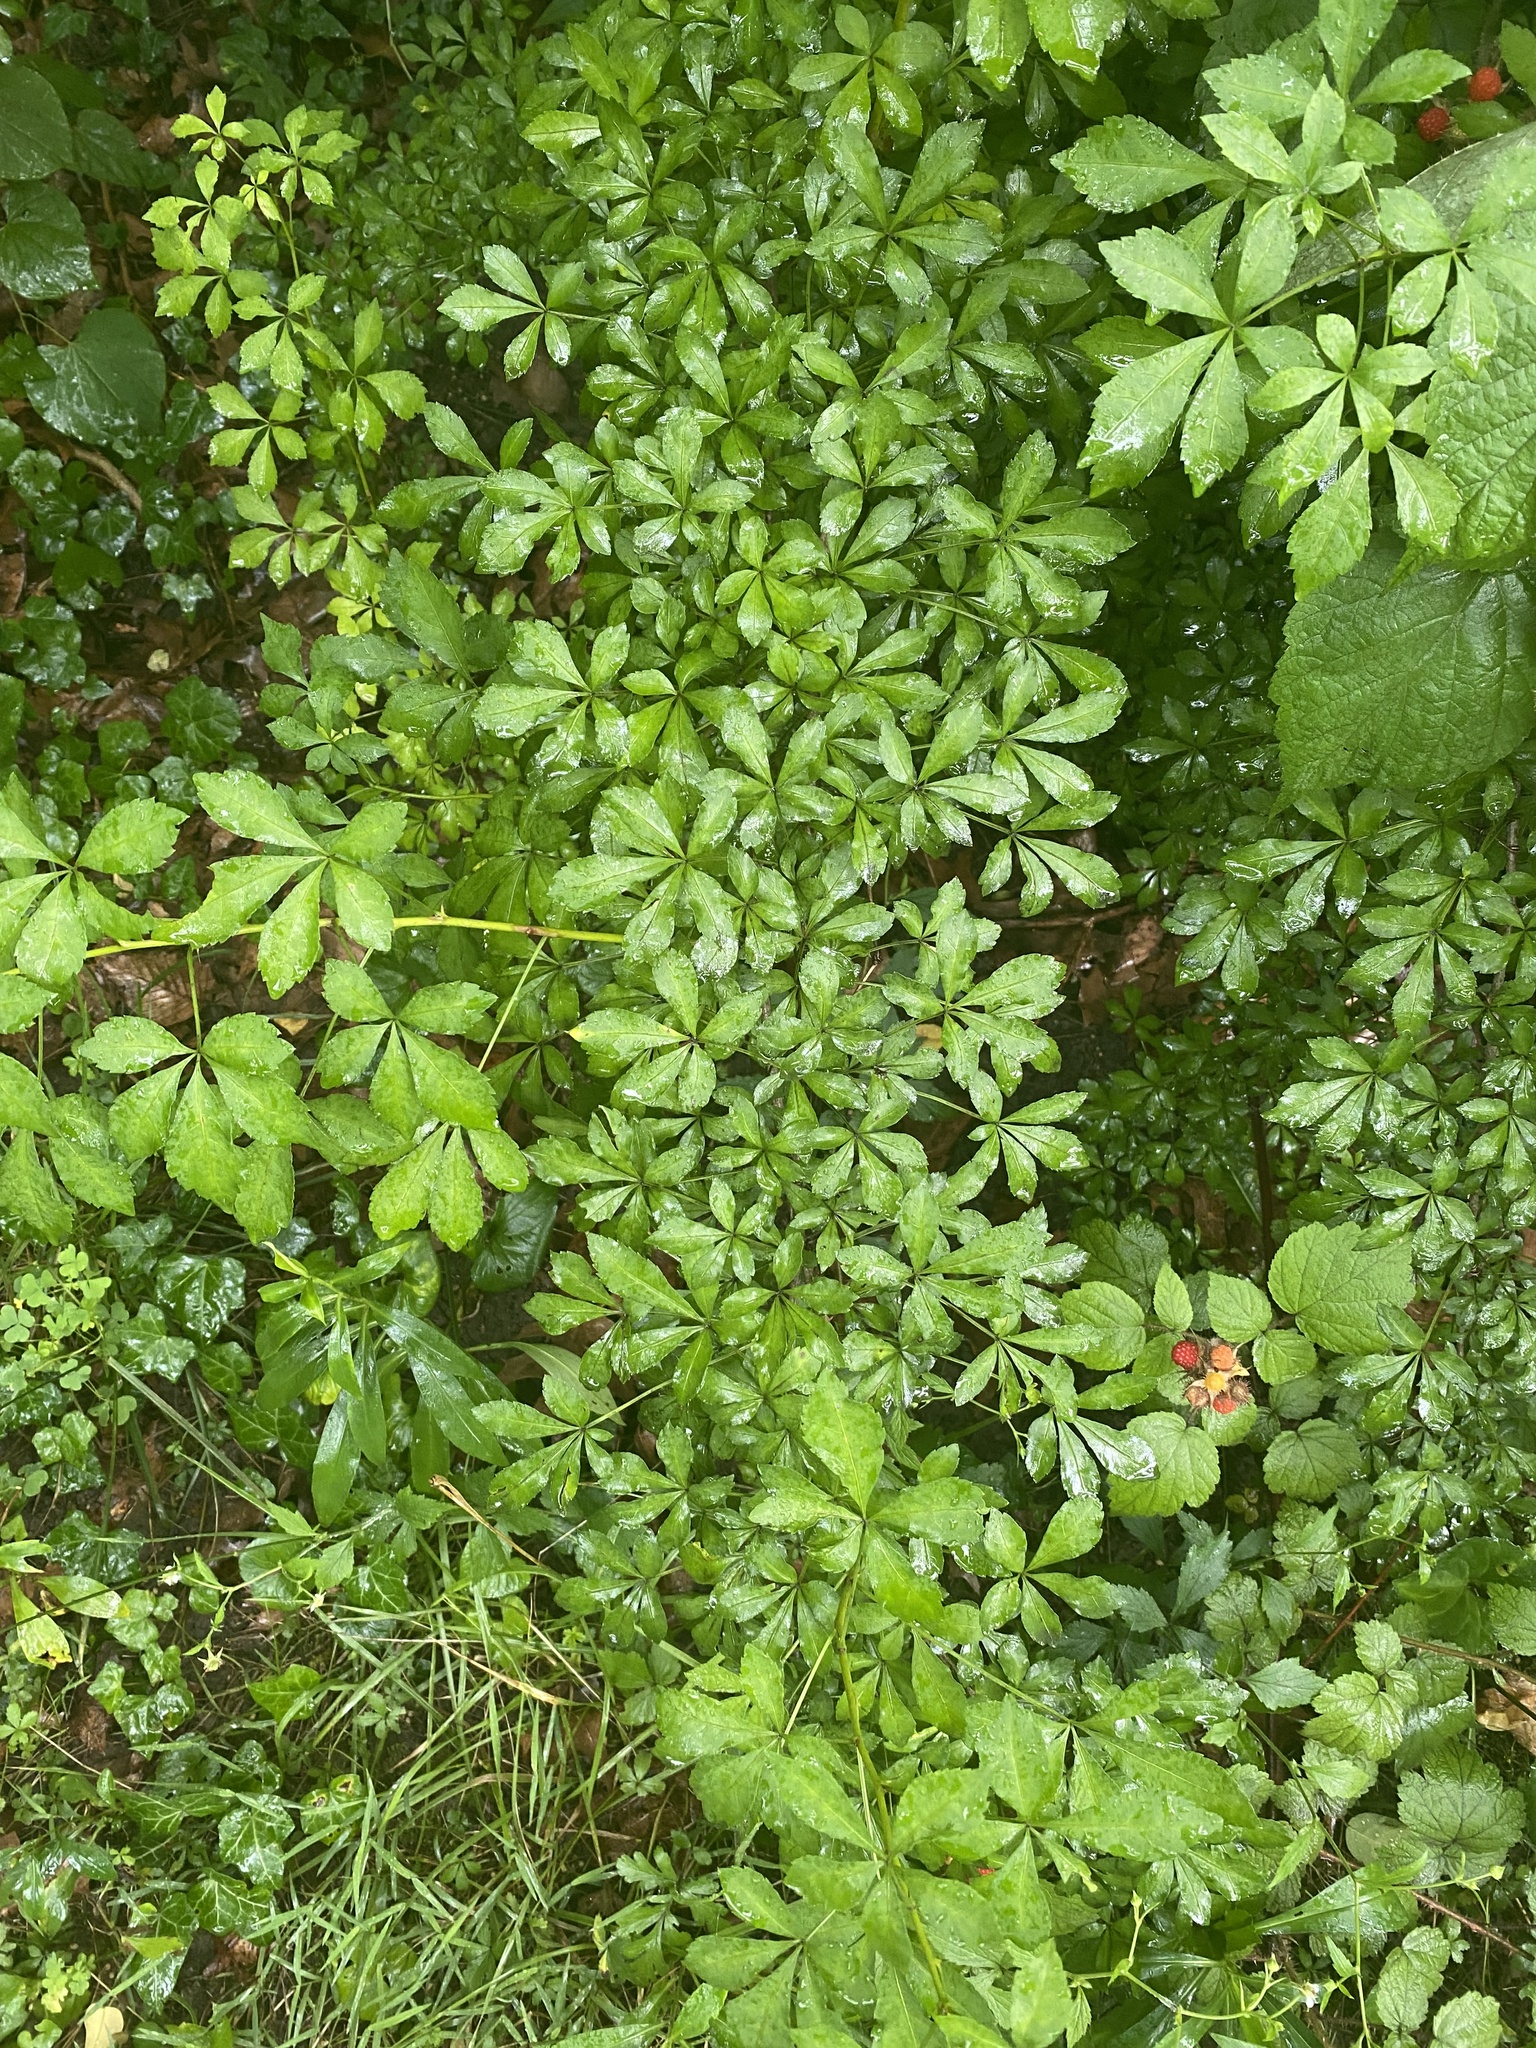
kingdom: Plantae
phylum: Tracheophyta
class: Magnoliopsida
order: Apiales
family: Araliaceae
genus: Eleutherococcus
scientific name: Eleutherococcus sieboldianus
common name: Ginseng
